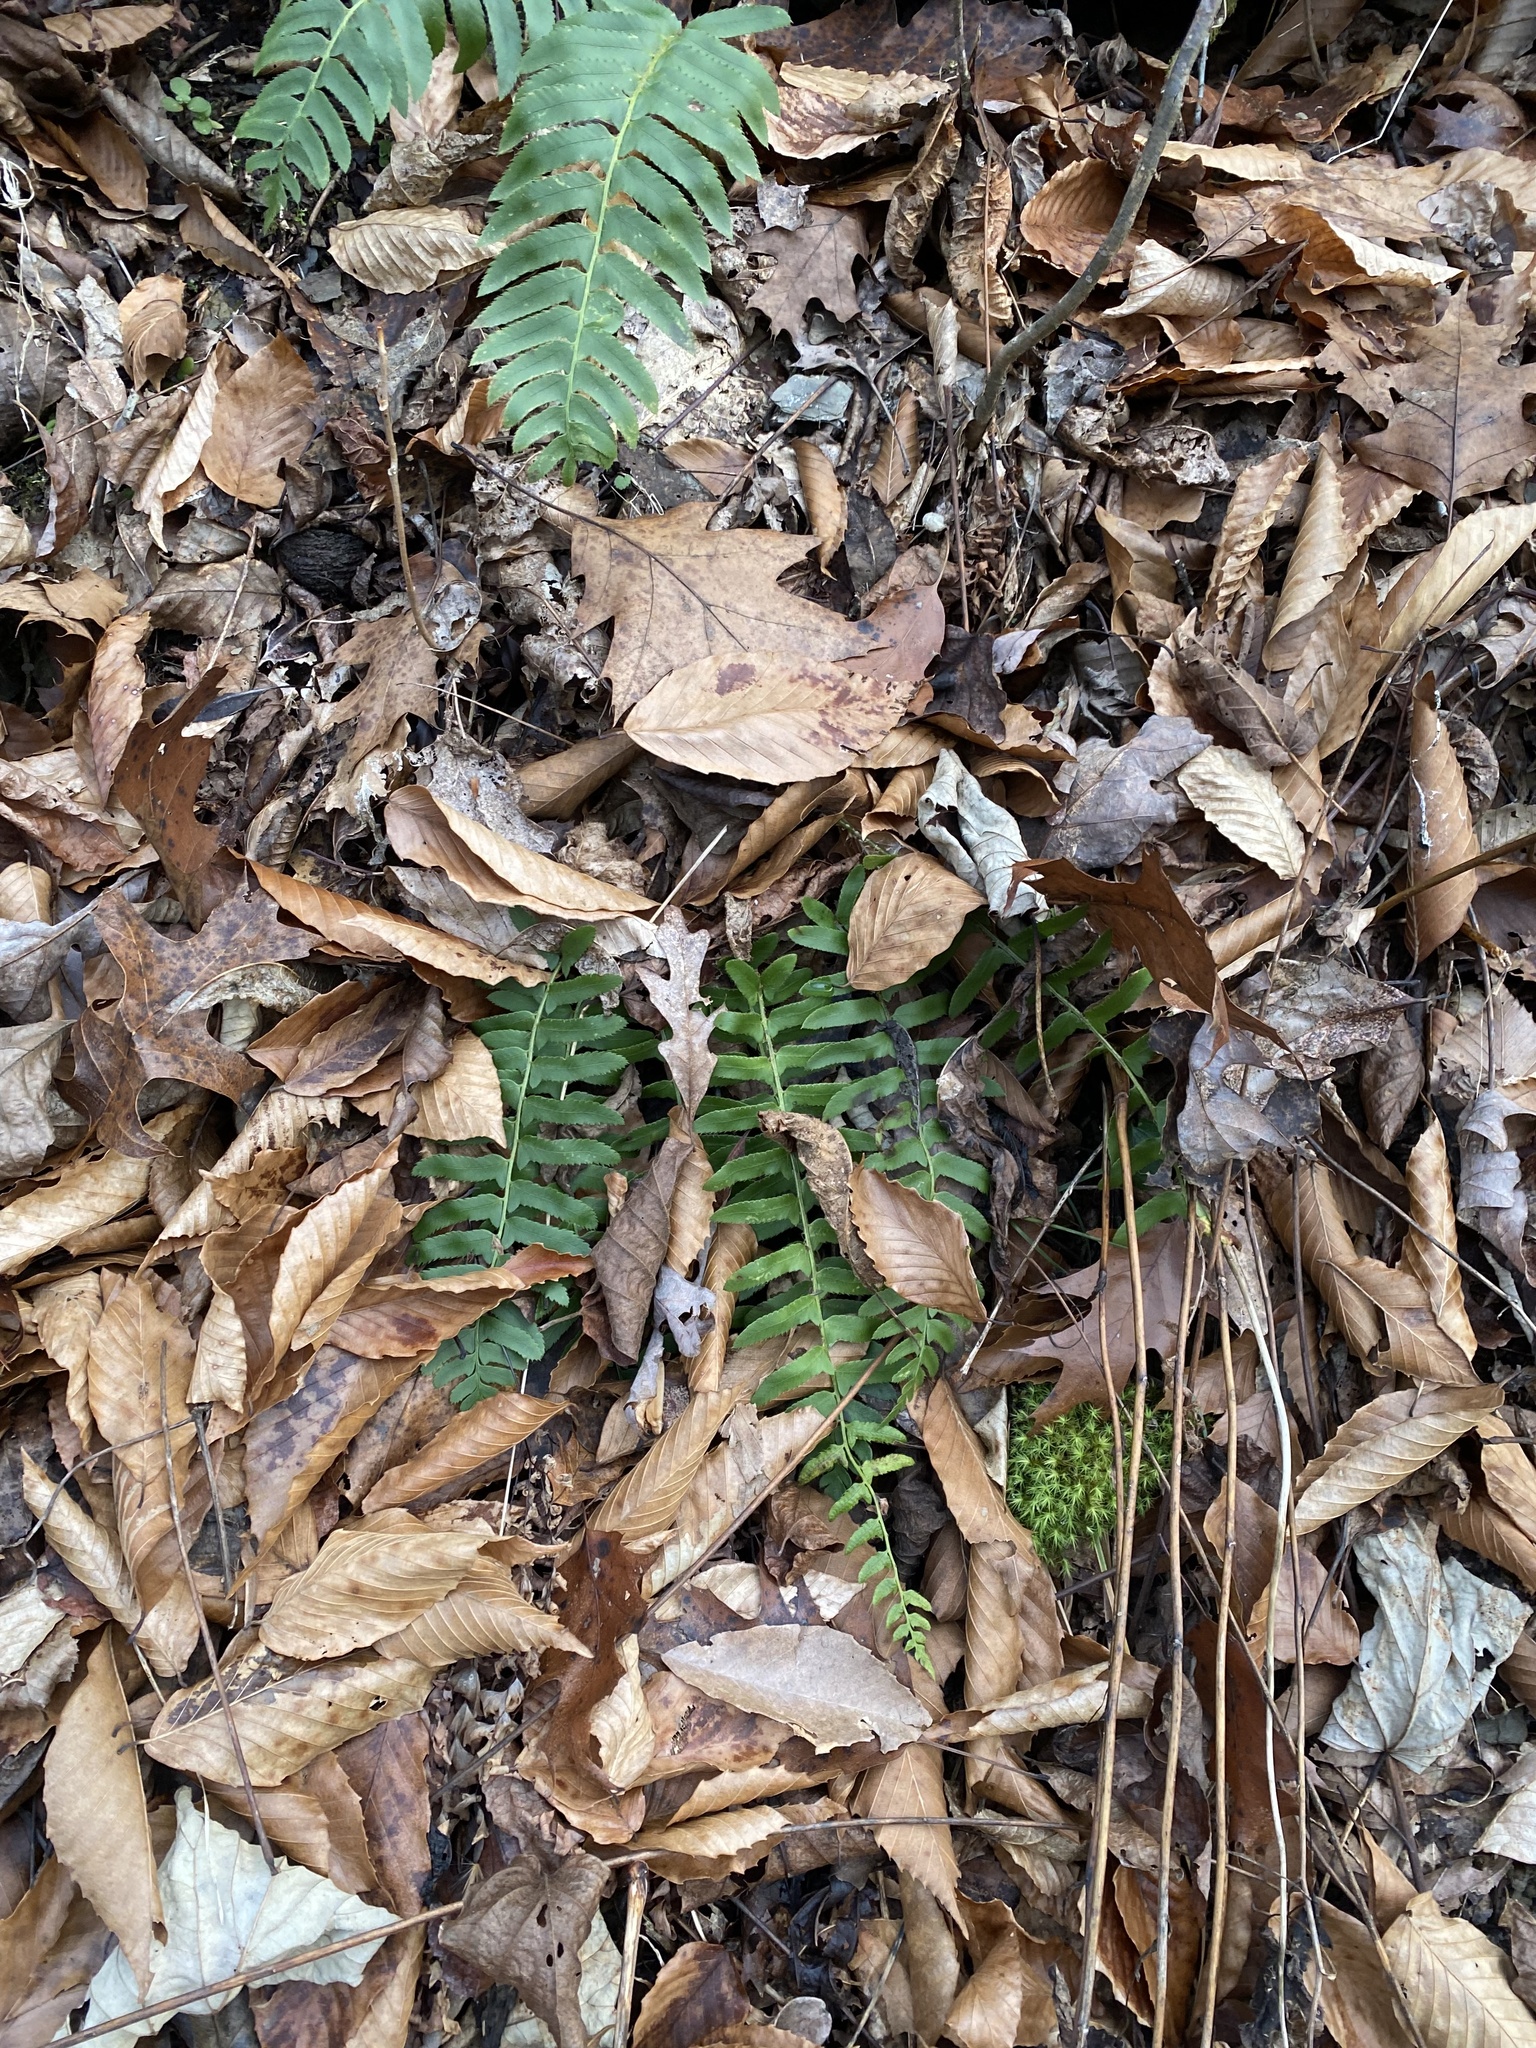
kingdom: Plantae
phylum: Tracheophyta
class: Polypodiopsida
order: Polypodiales
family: Dryopteridaceae
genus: Polystichum
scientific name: Polystichum acrostichoides
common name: Christmas fern
